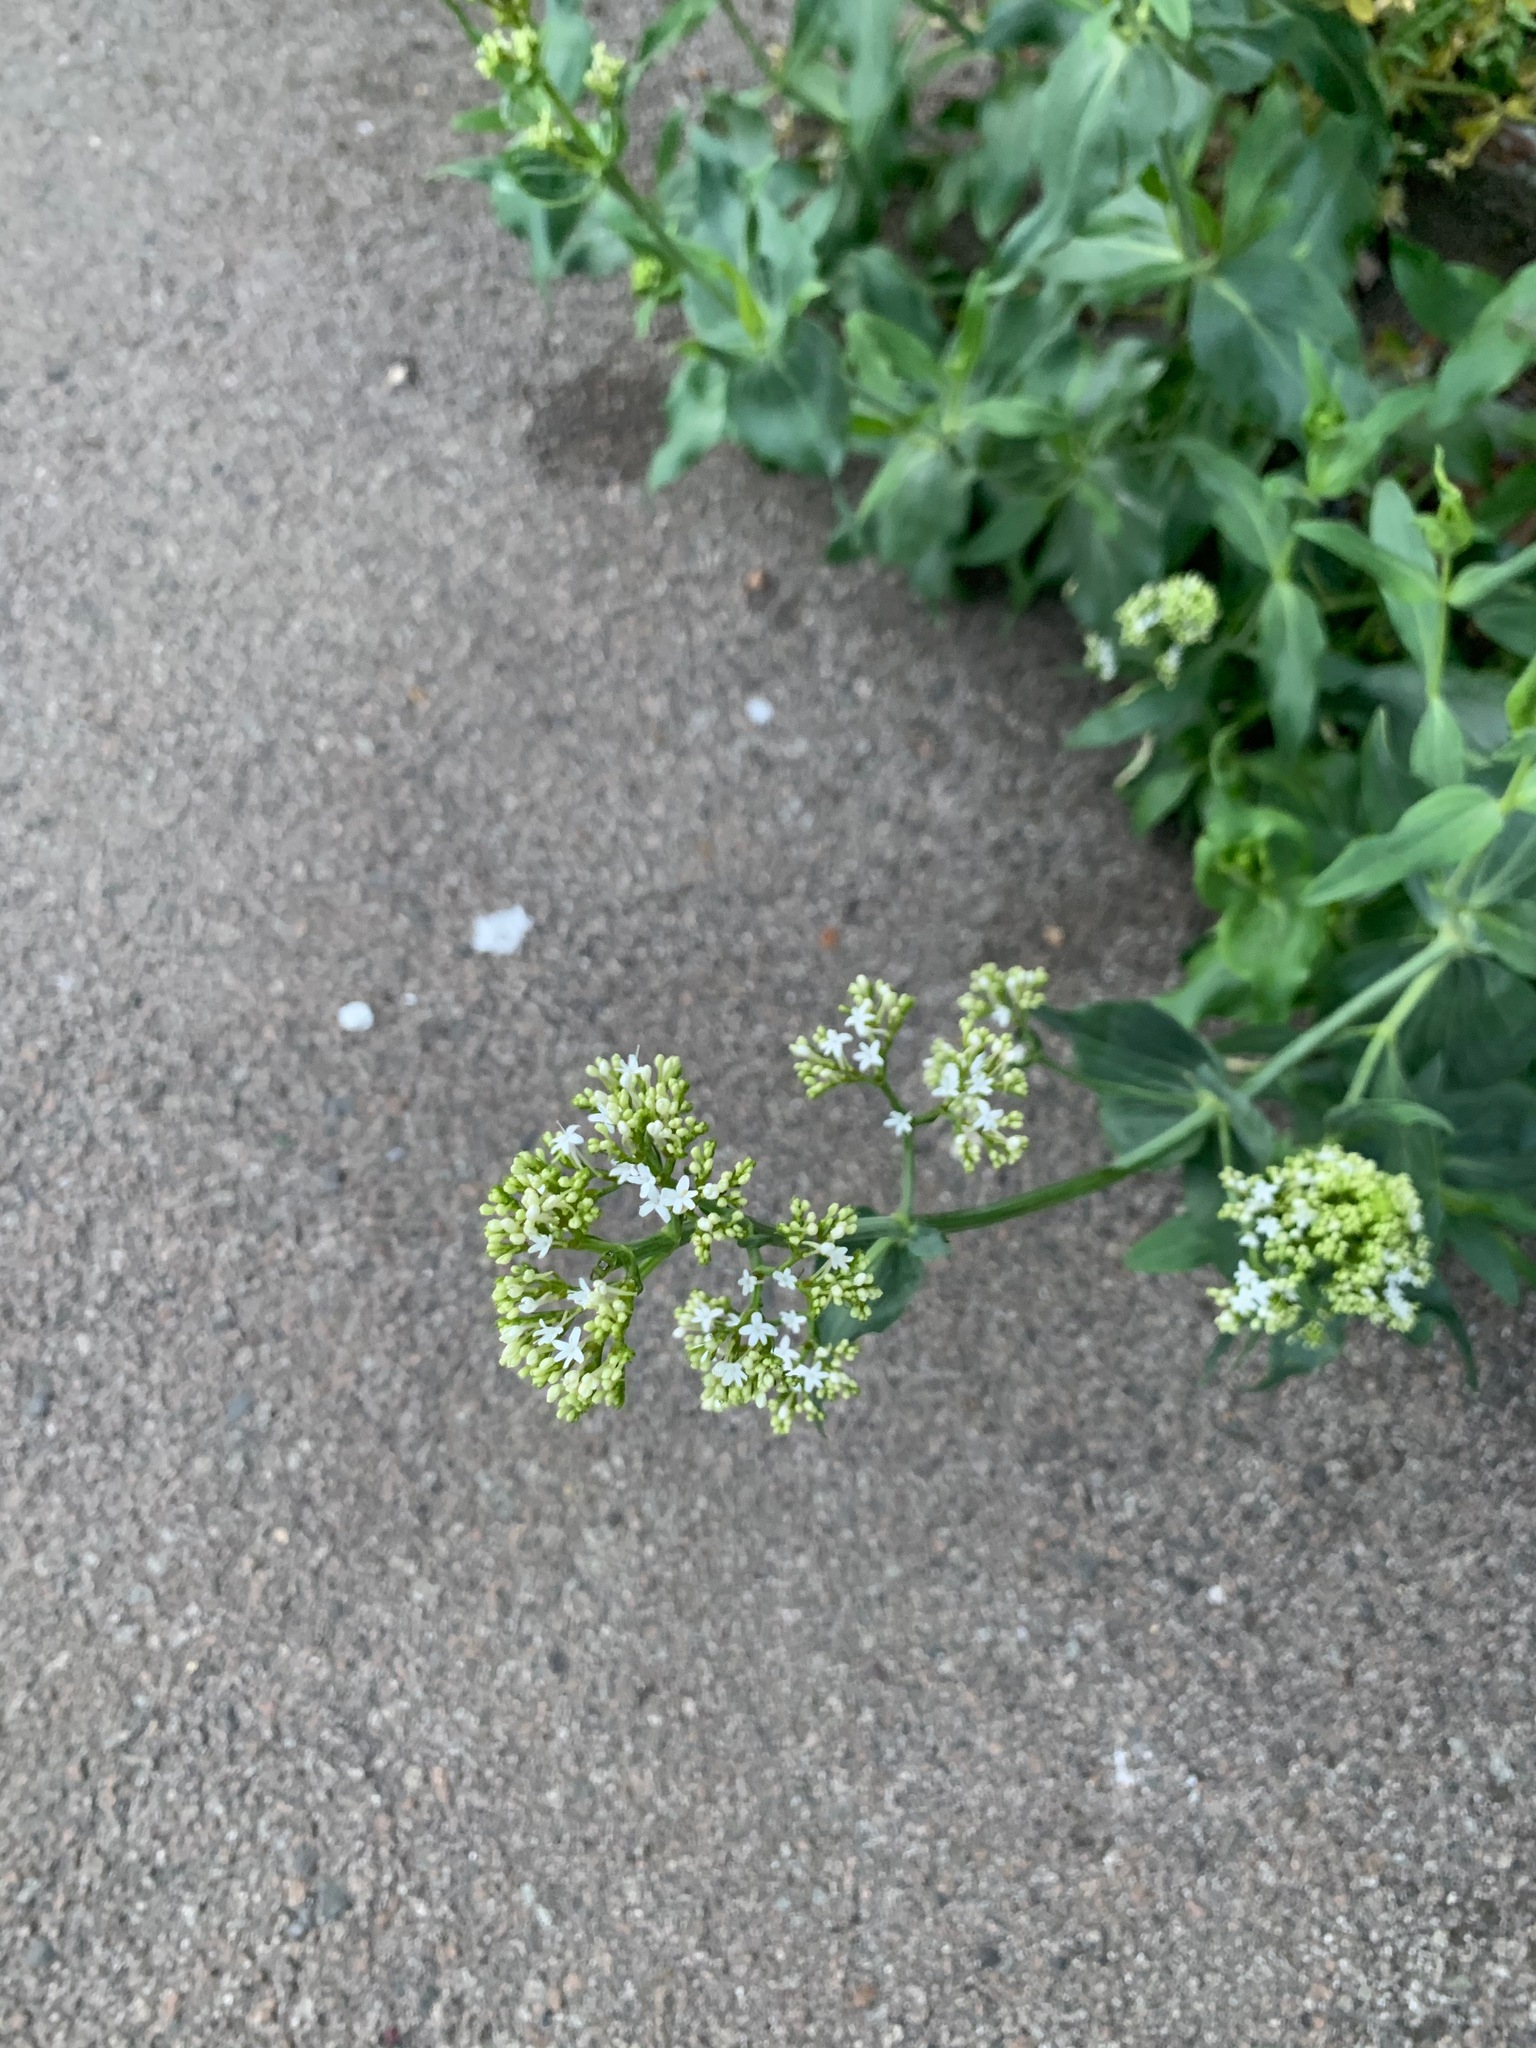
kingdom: Plantae
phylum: Tracheophyta
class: Magnoliopsida
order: Dipsacales
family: Caprifoliaceae
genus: Centranthus
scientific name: Centranthus ruber
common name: Red valerian
